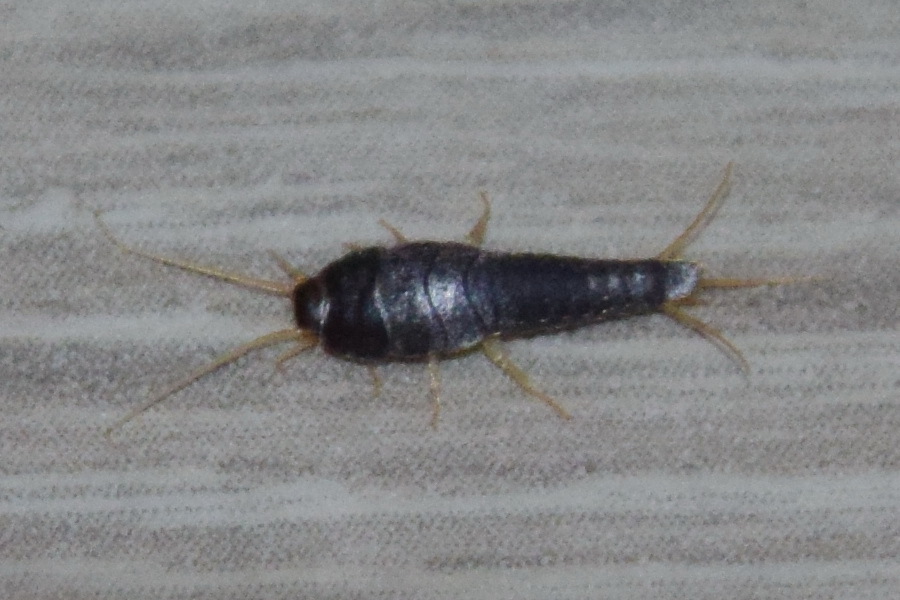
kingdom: Animalia
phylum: Arthropoda
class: Insecta
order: Zygentoma
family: Lepismatidae
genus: Lepisma
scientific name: Lepisma saccharinum
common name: Silverfish
